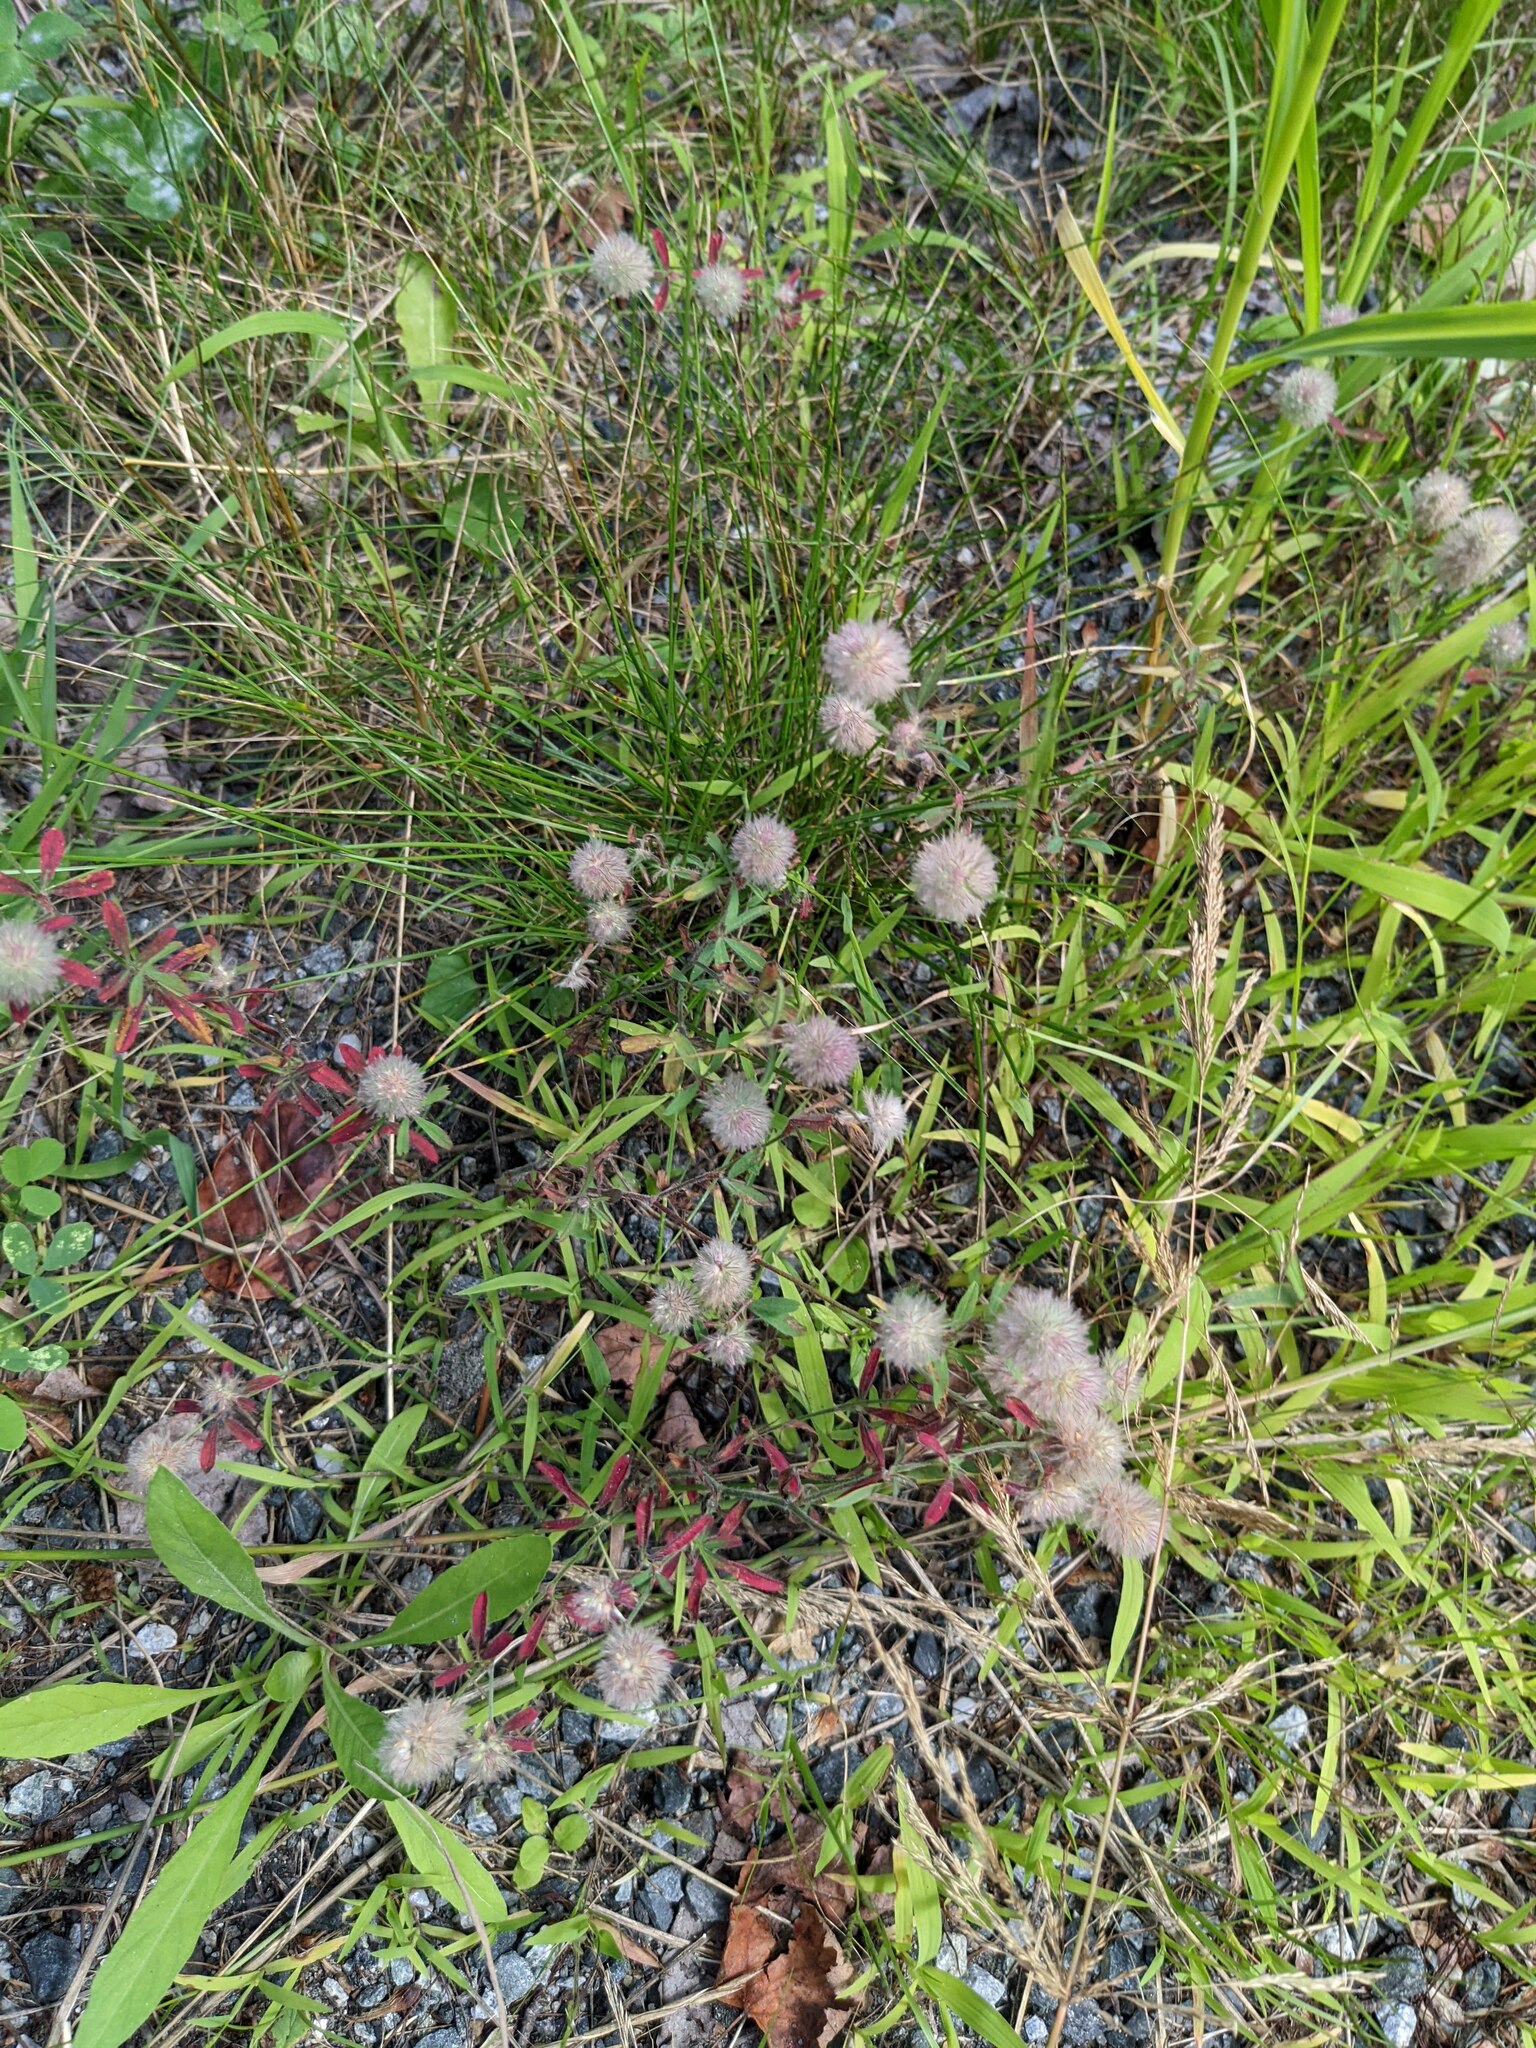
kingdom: Plantae
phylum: Tracheophyta
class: Magnoliopsida
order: Fabales
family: Fabaceae
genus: Trifolium
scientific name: Trifolium arvense
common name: Hare's-foot clover
